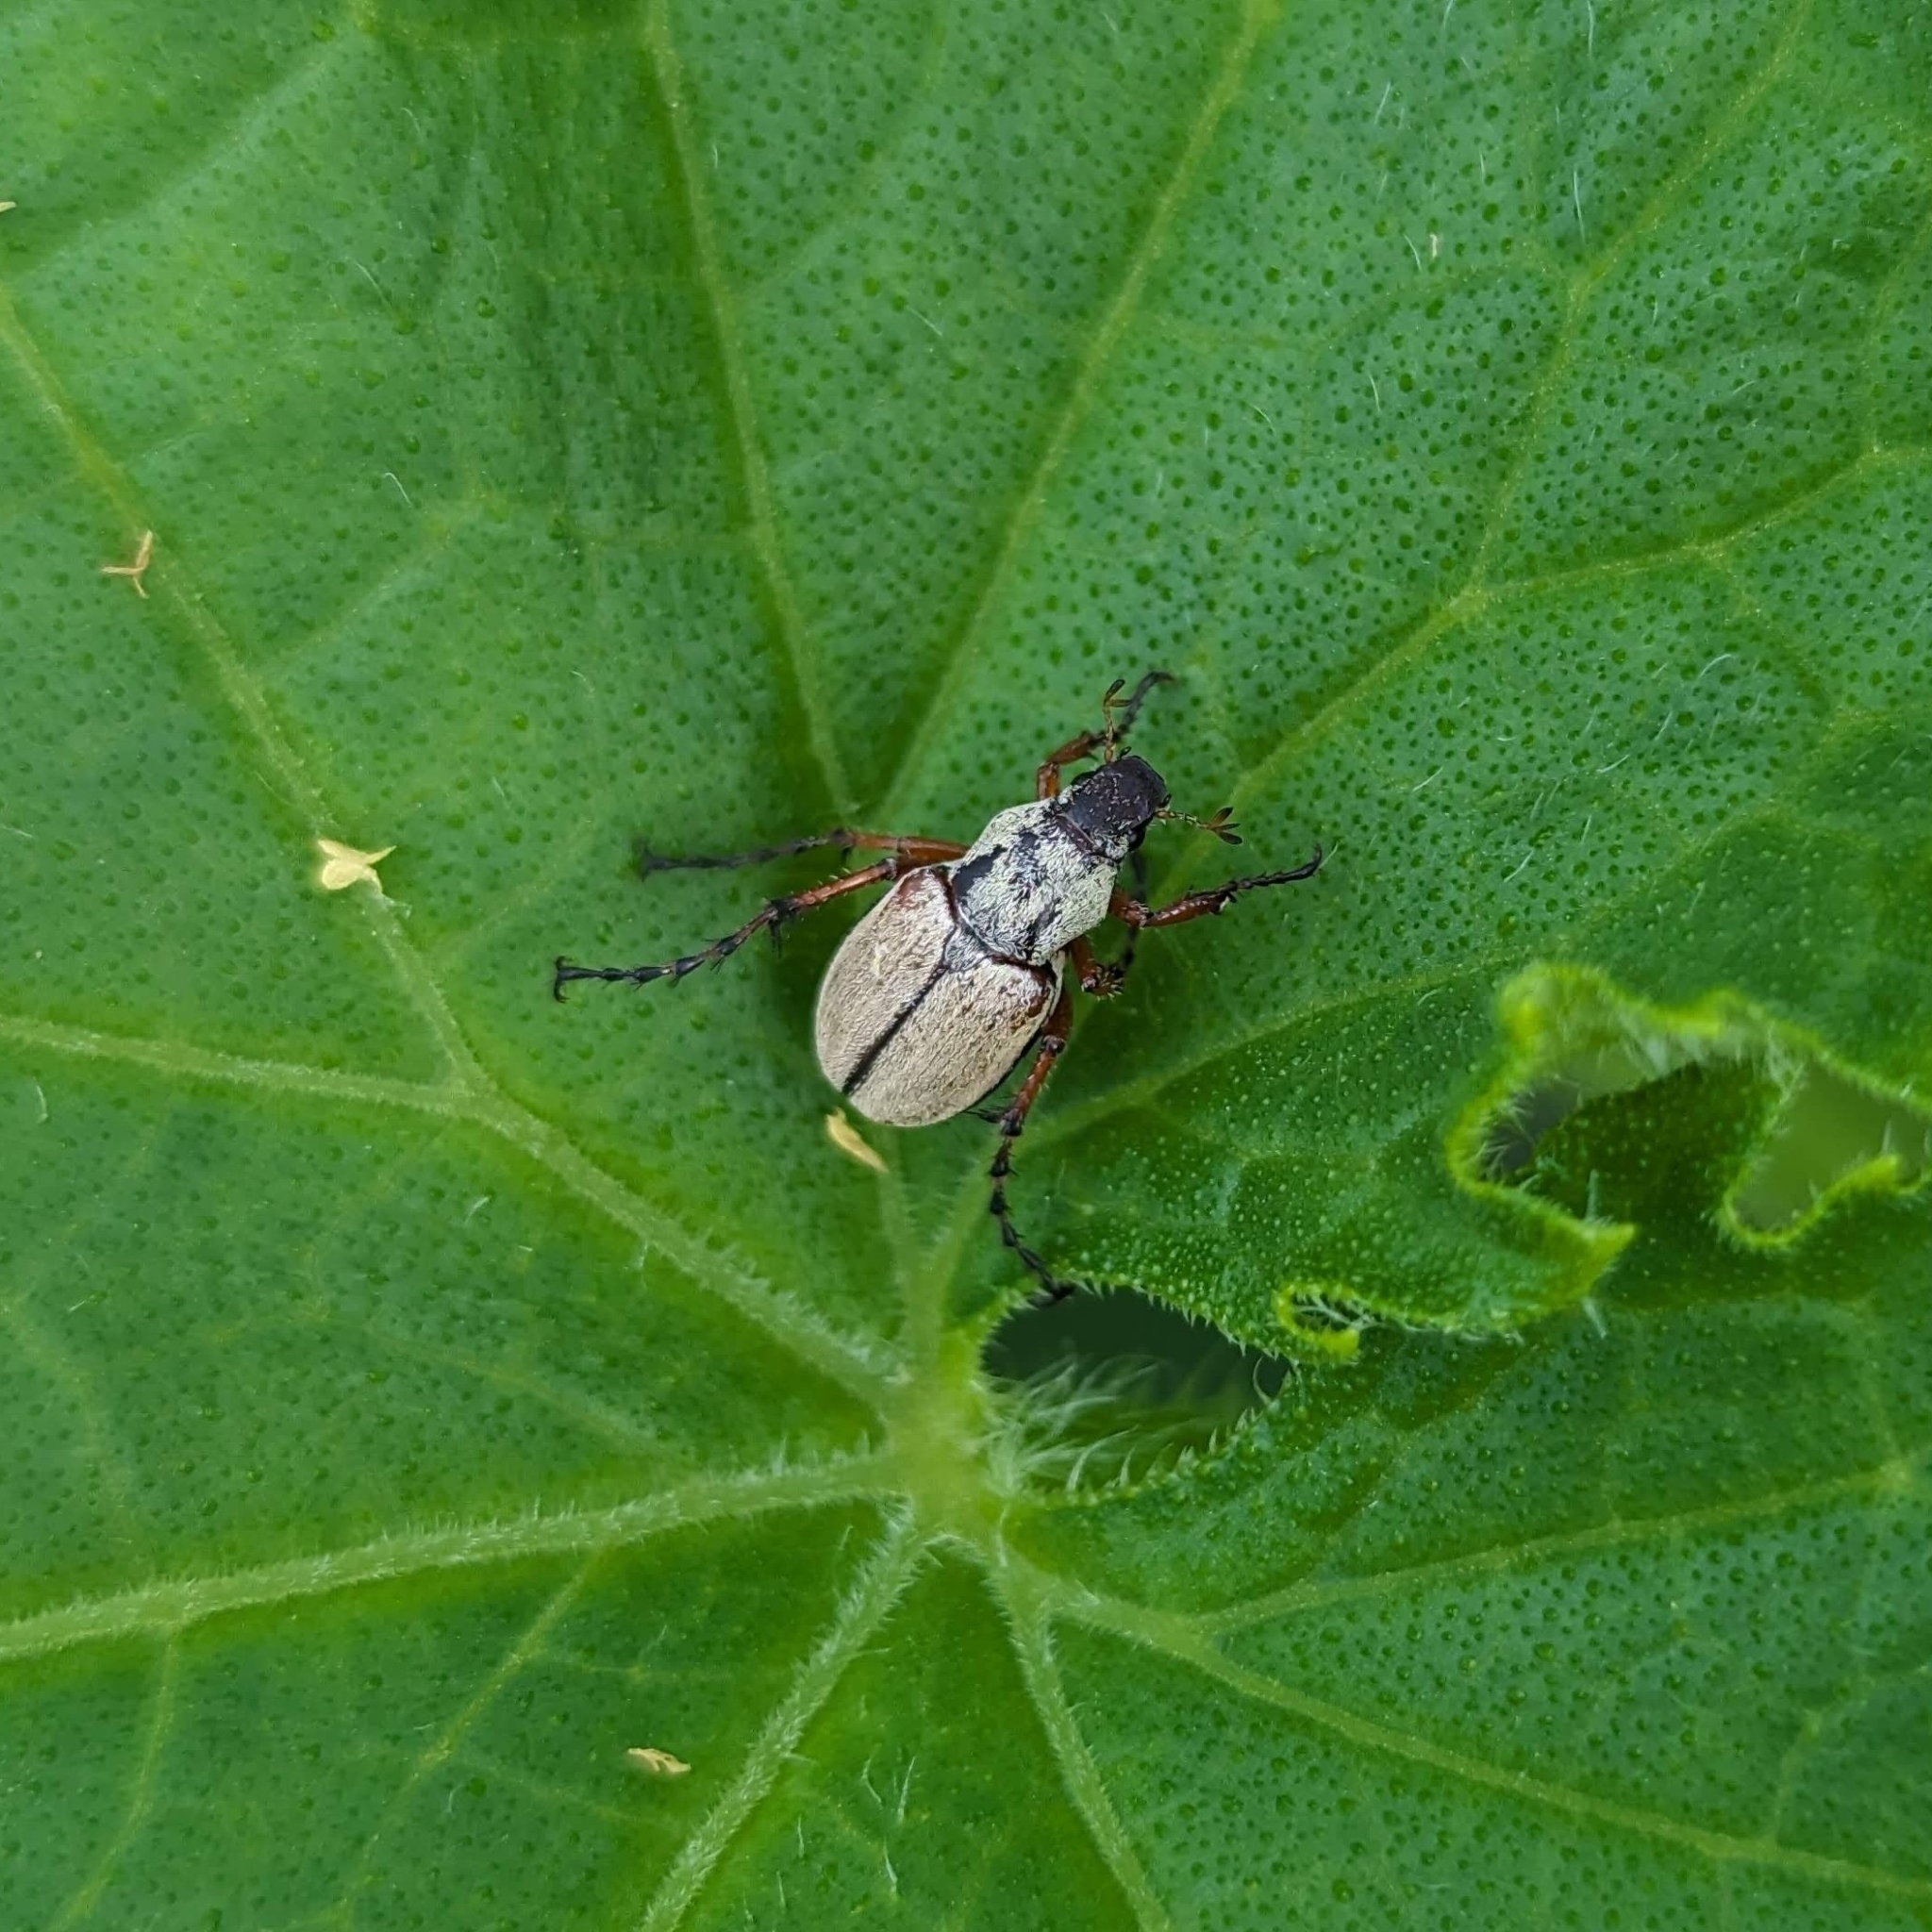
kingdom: Animalia
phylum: Arthropoda
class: Insecta
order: Coleoptera
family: Scarabaeidae
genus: Macrodactylus
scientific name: Macrodactylus subspinosus
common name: American rose chafer
